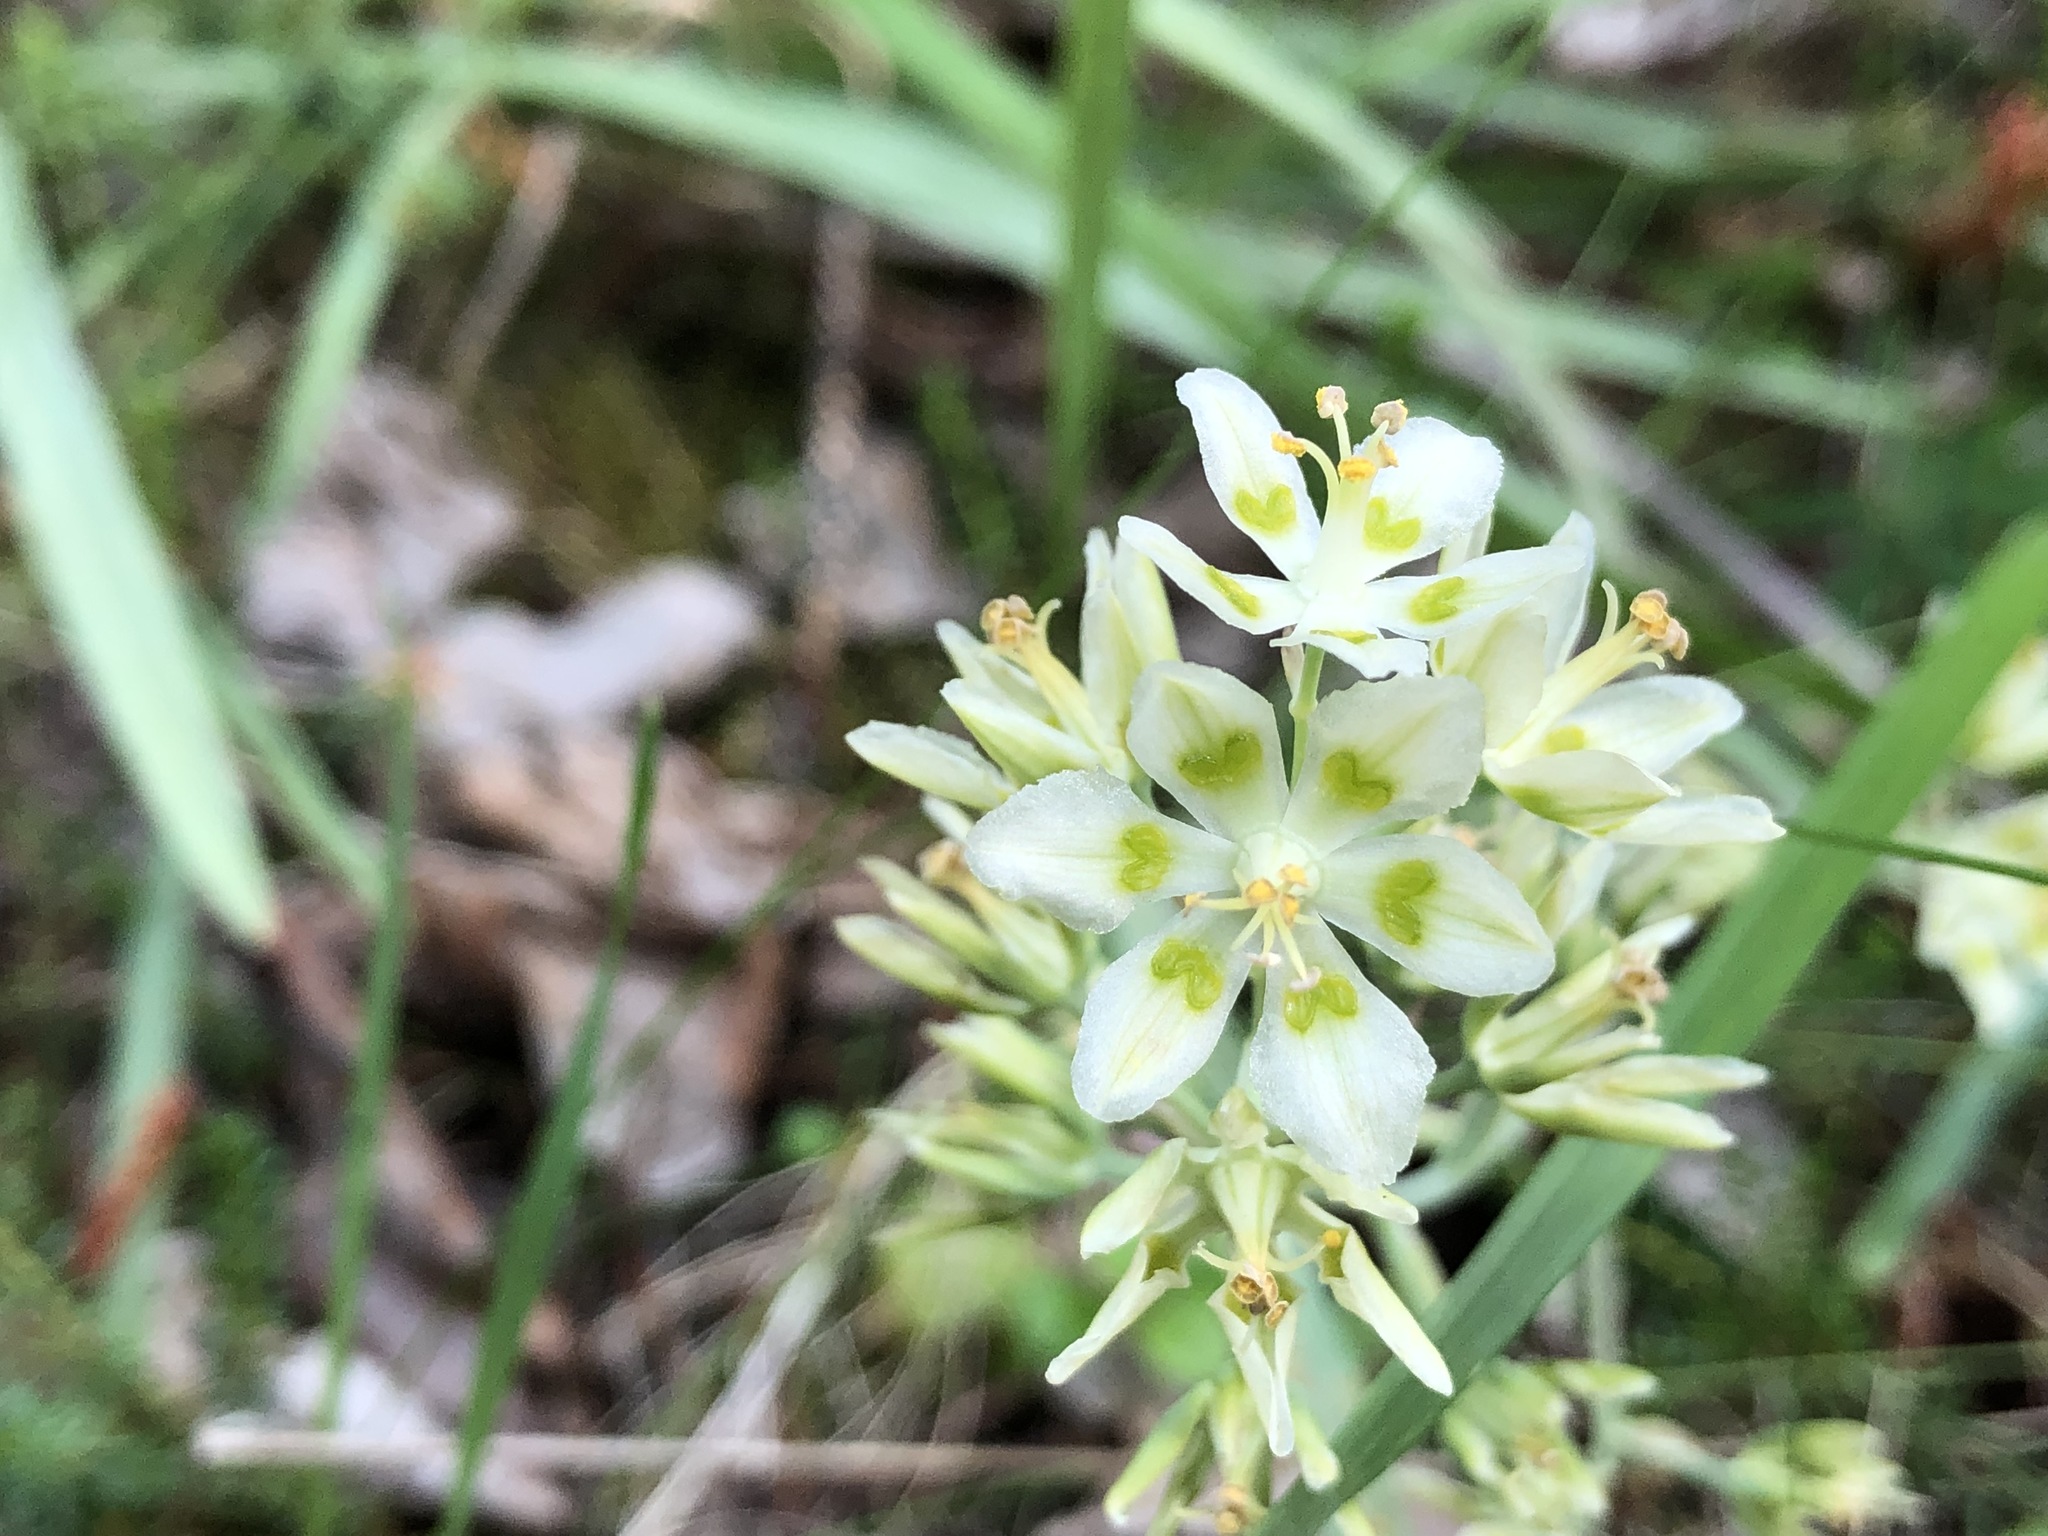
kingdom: Plantae
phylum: Tracheophyta
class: Liliopsida
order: Liliales
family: Melanthiaceae
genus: Anticlea
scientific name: Anticlea elegans
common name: Mountain death camas
